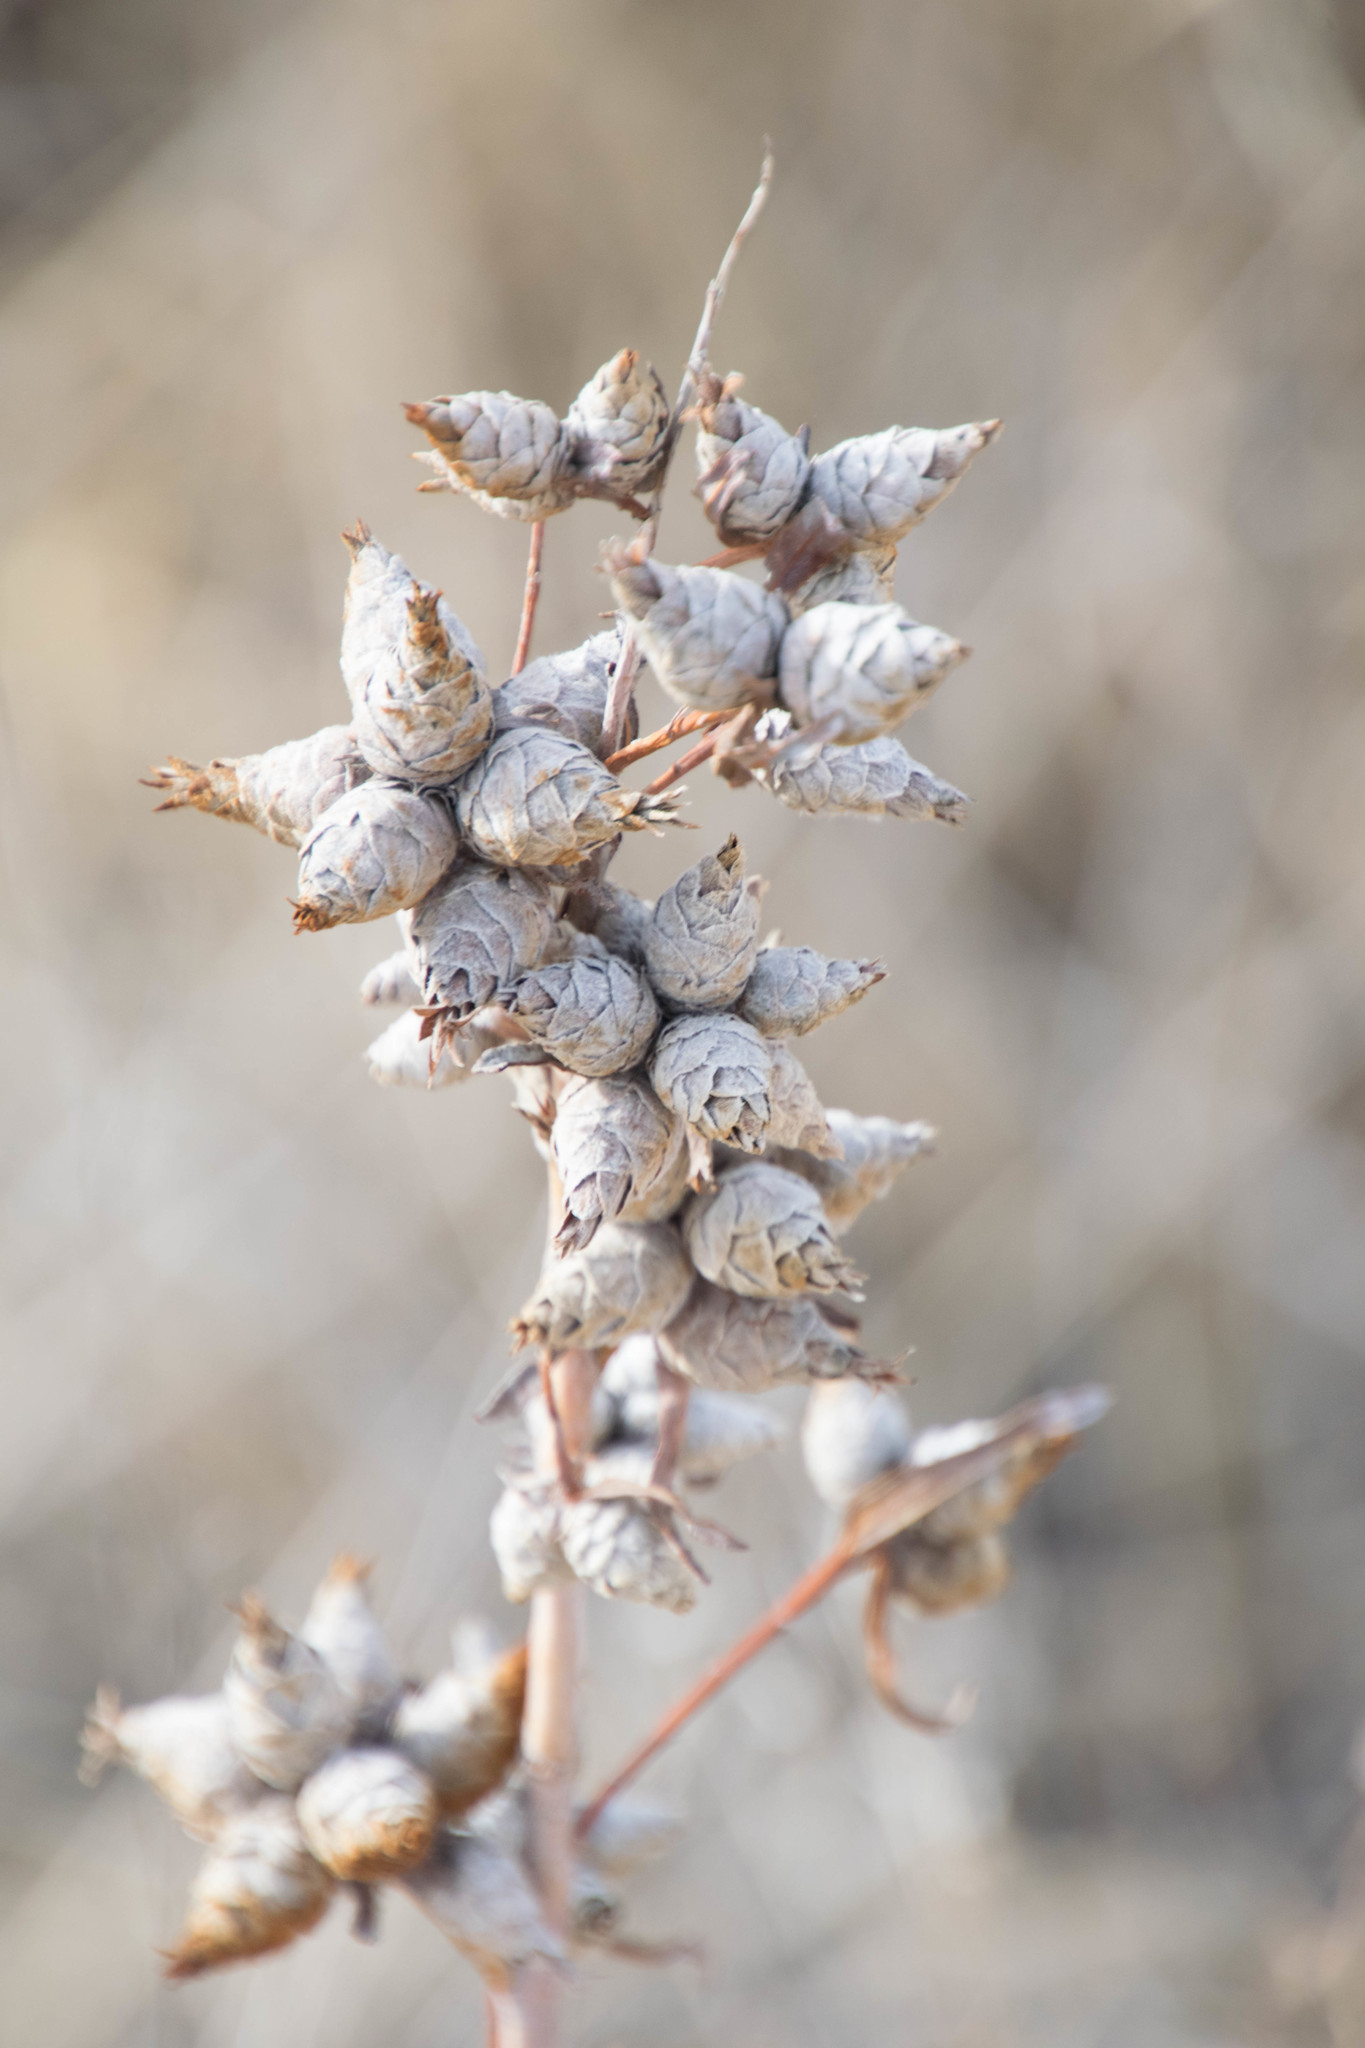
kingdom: Animalia
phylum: Arthropoda
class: Insecta
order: Diptera
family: Cecidomyiidae
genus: Rabdophaga
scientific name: Rabdophaga strobiloides
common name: Willow pinecone gall midge
